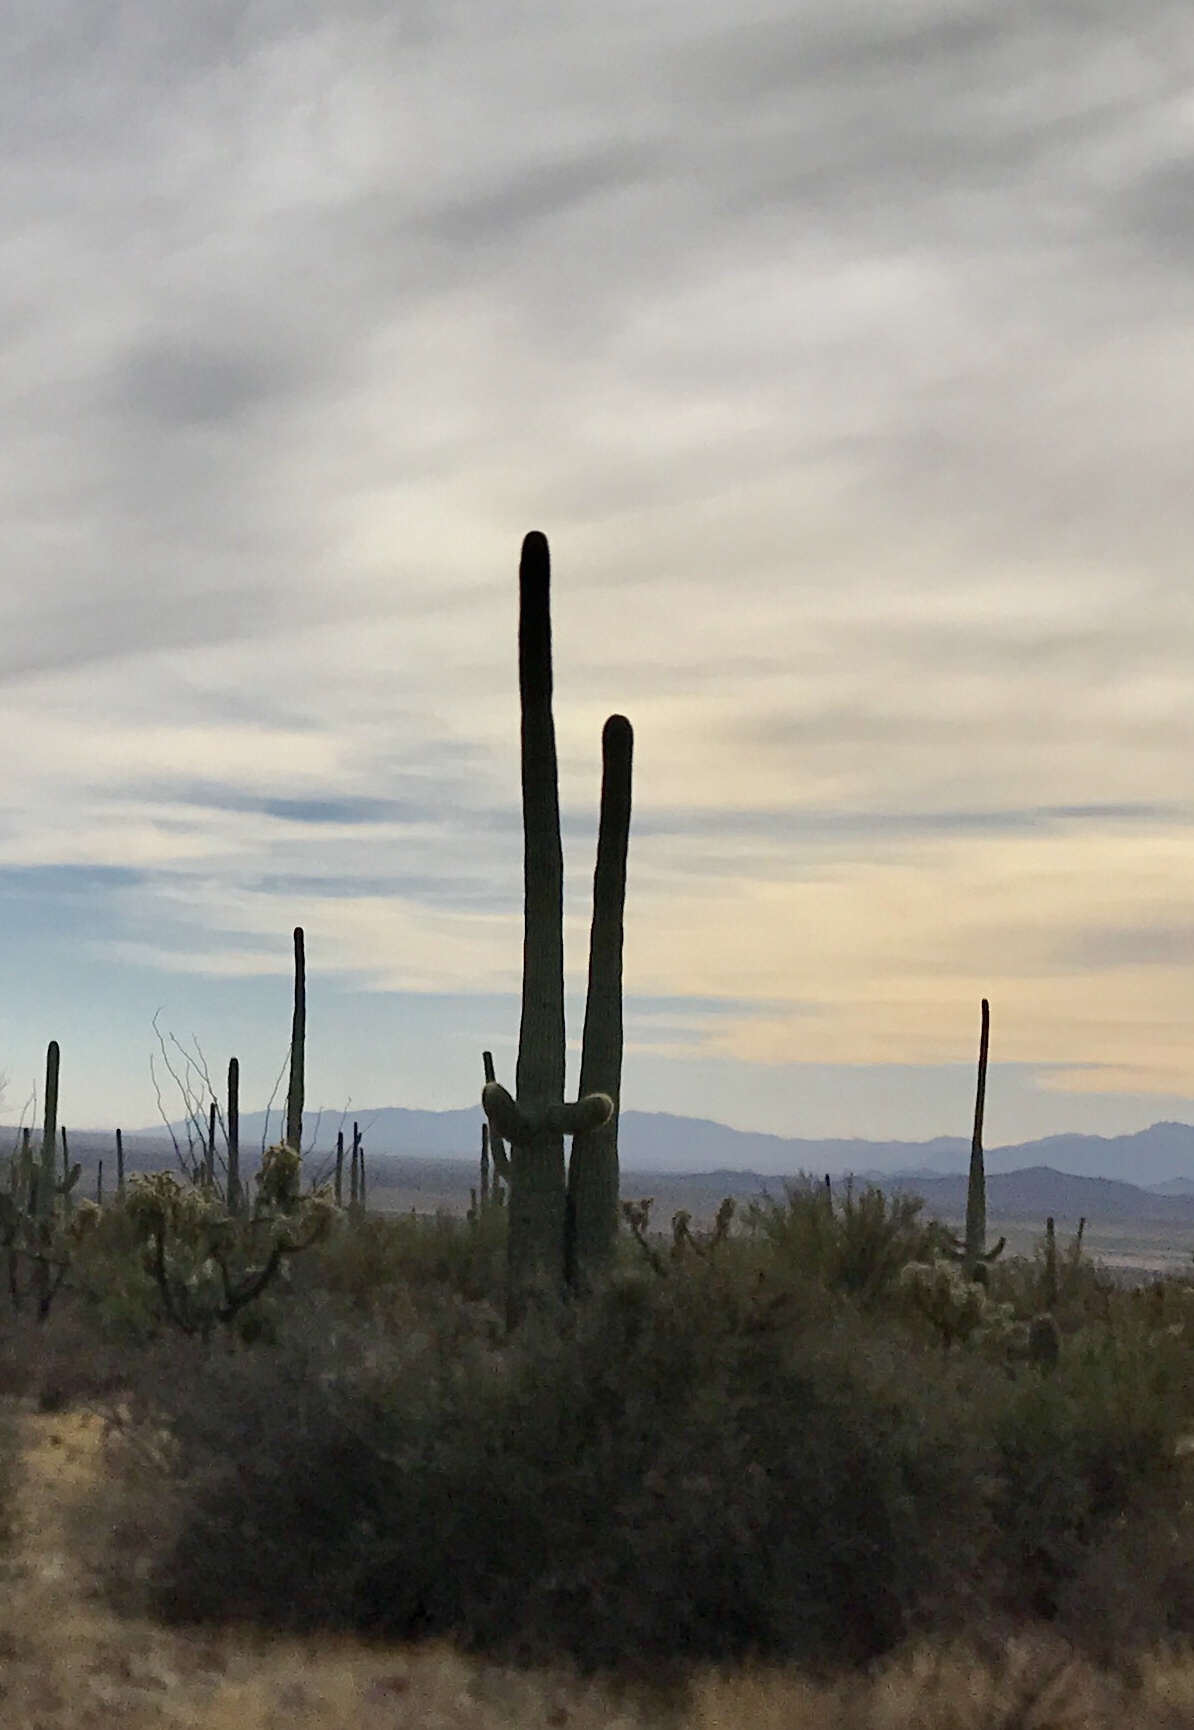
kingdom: Plantae
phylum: Tracheophyta
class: Magnoliopsida
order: Caryophyllales
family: Cactaceae
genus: Carnegiea
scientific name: Carnegiea gigantea
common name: Saguaro
